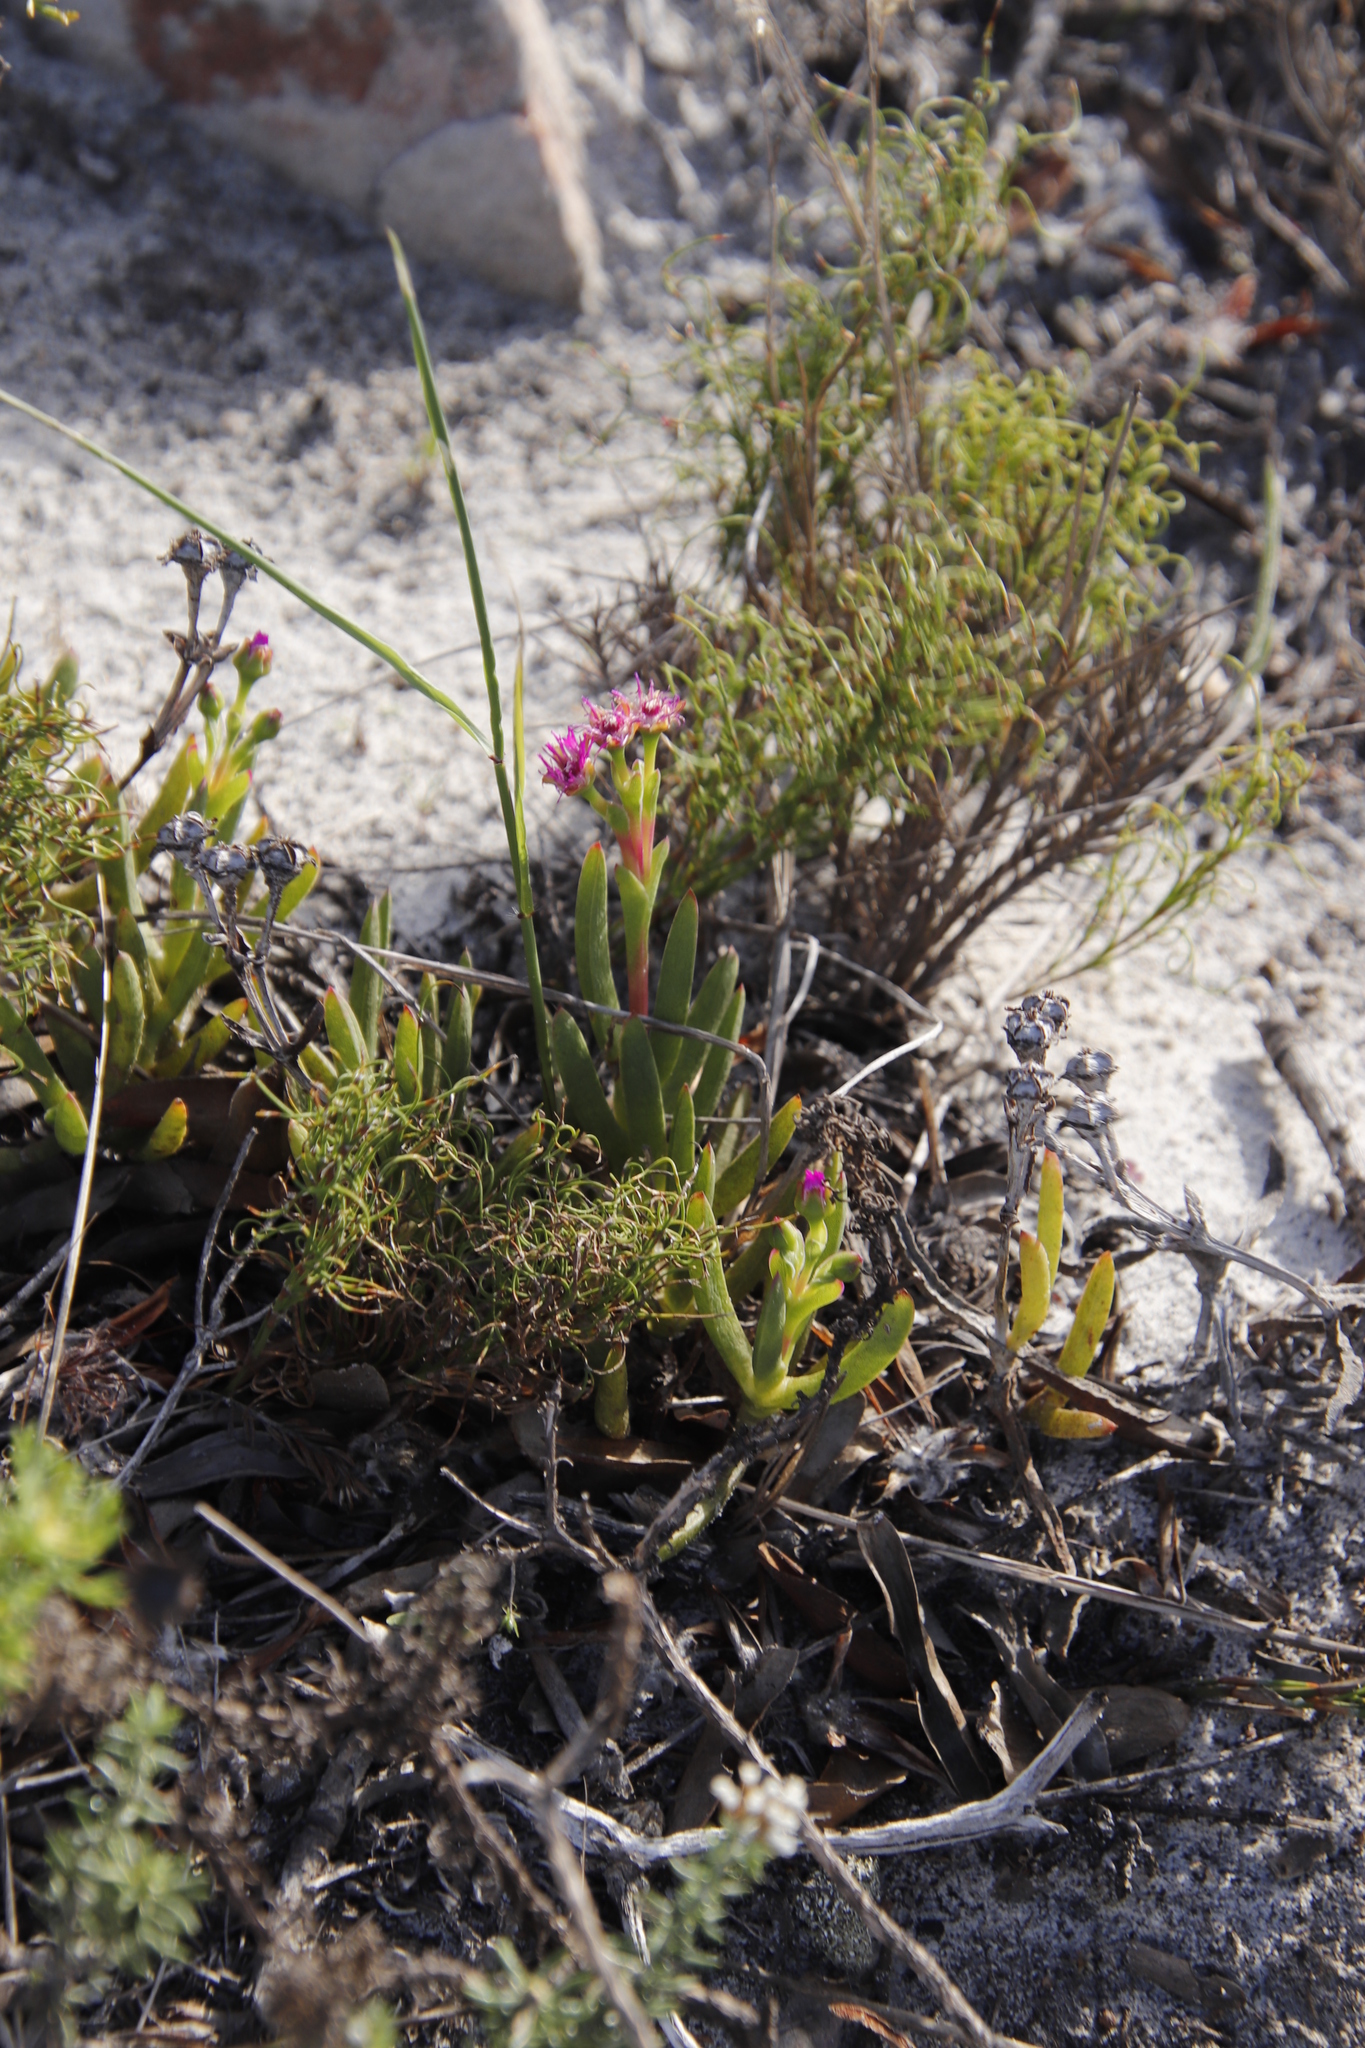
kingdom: Plantae
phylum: Tracheophyta
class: Magnoliopsida
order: Caryophyllales
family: Aizoaceae
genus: Ruschia
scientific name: Ruschia sarmentosa
